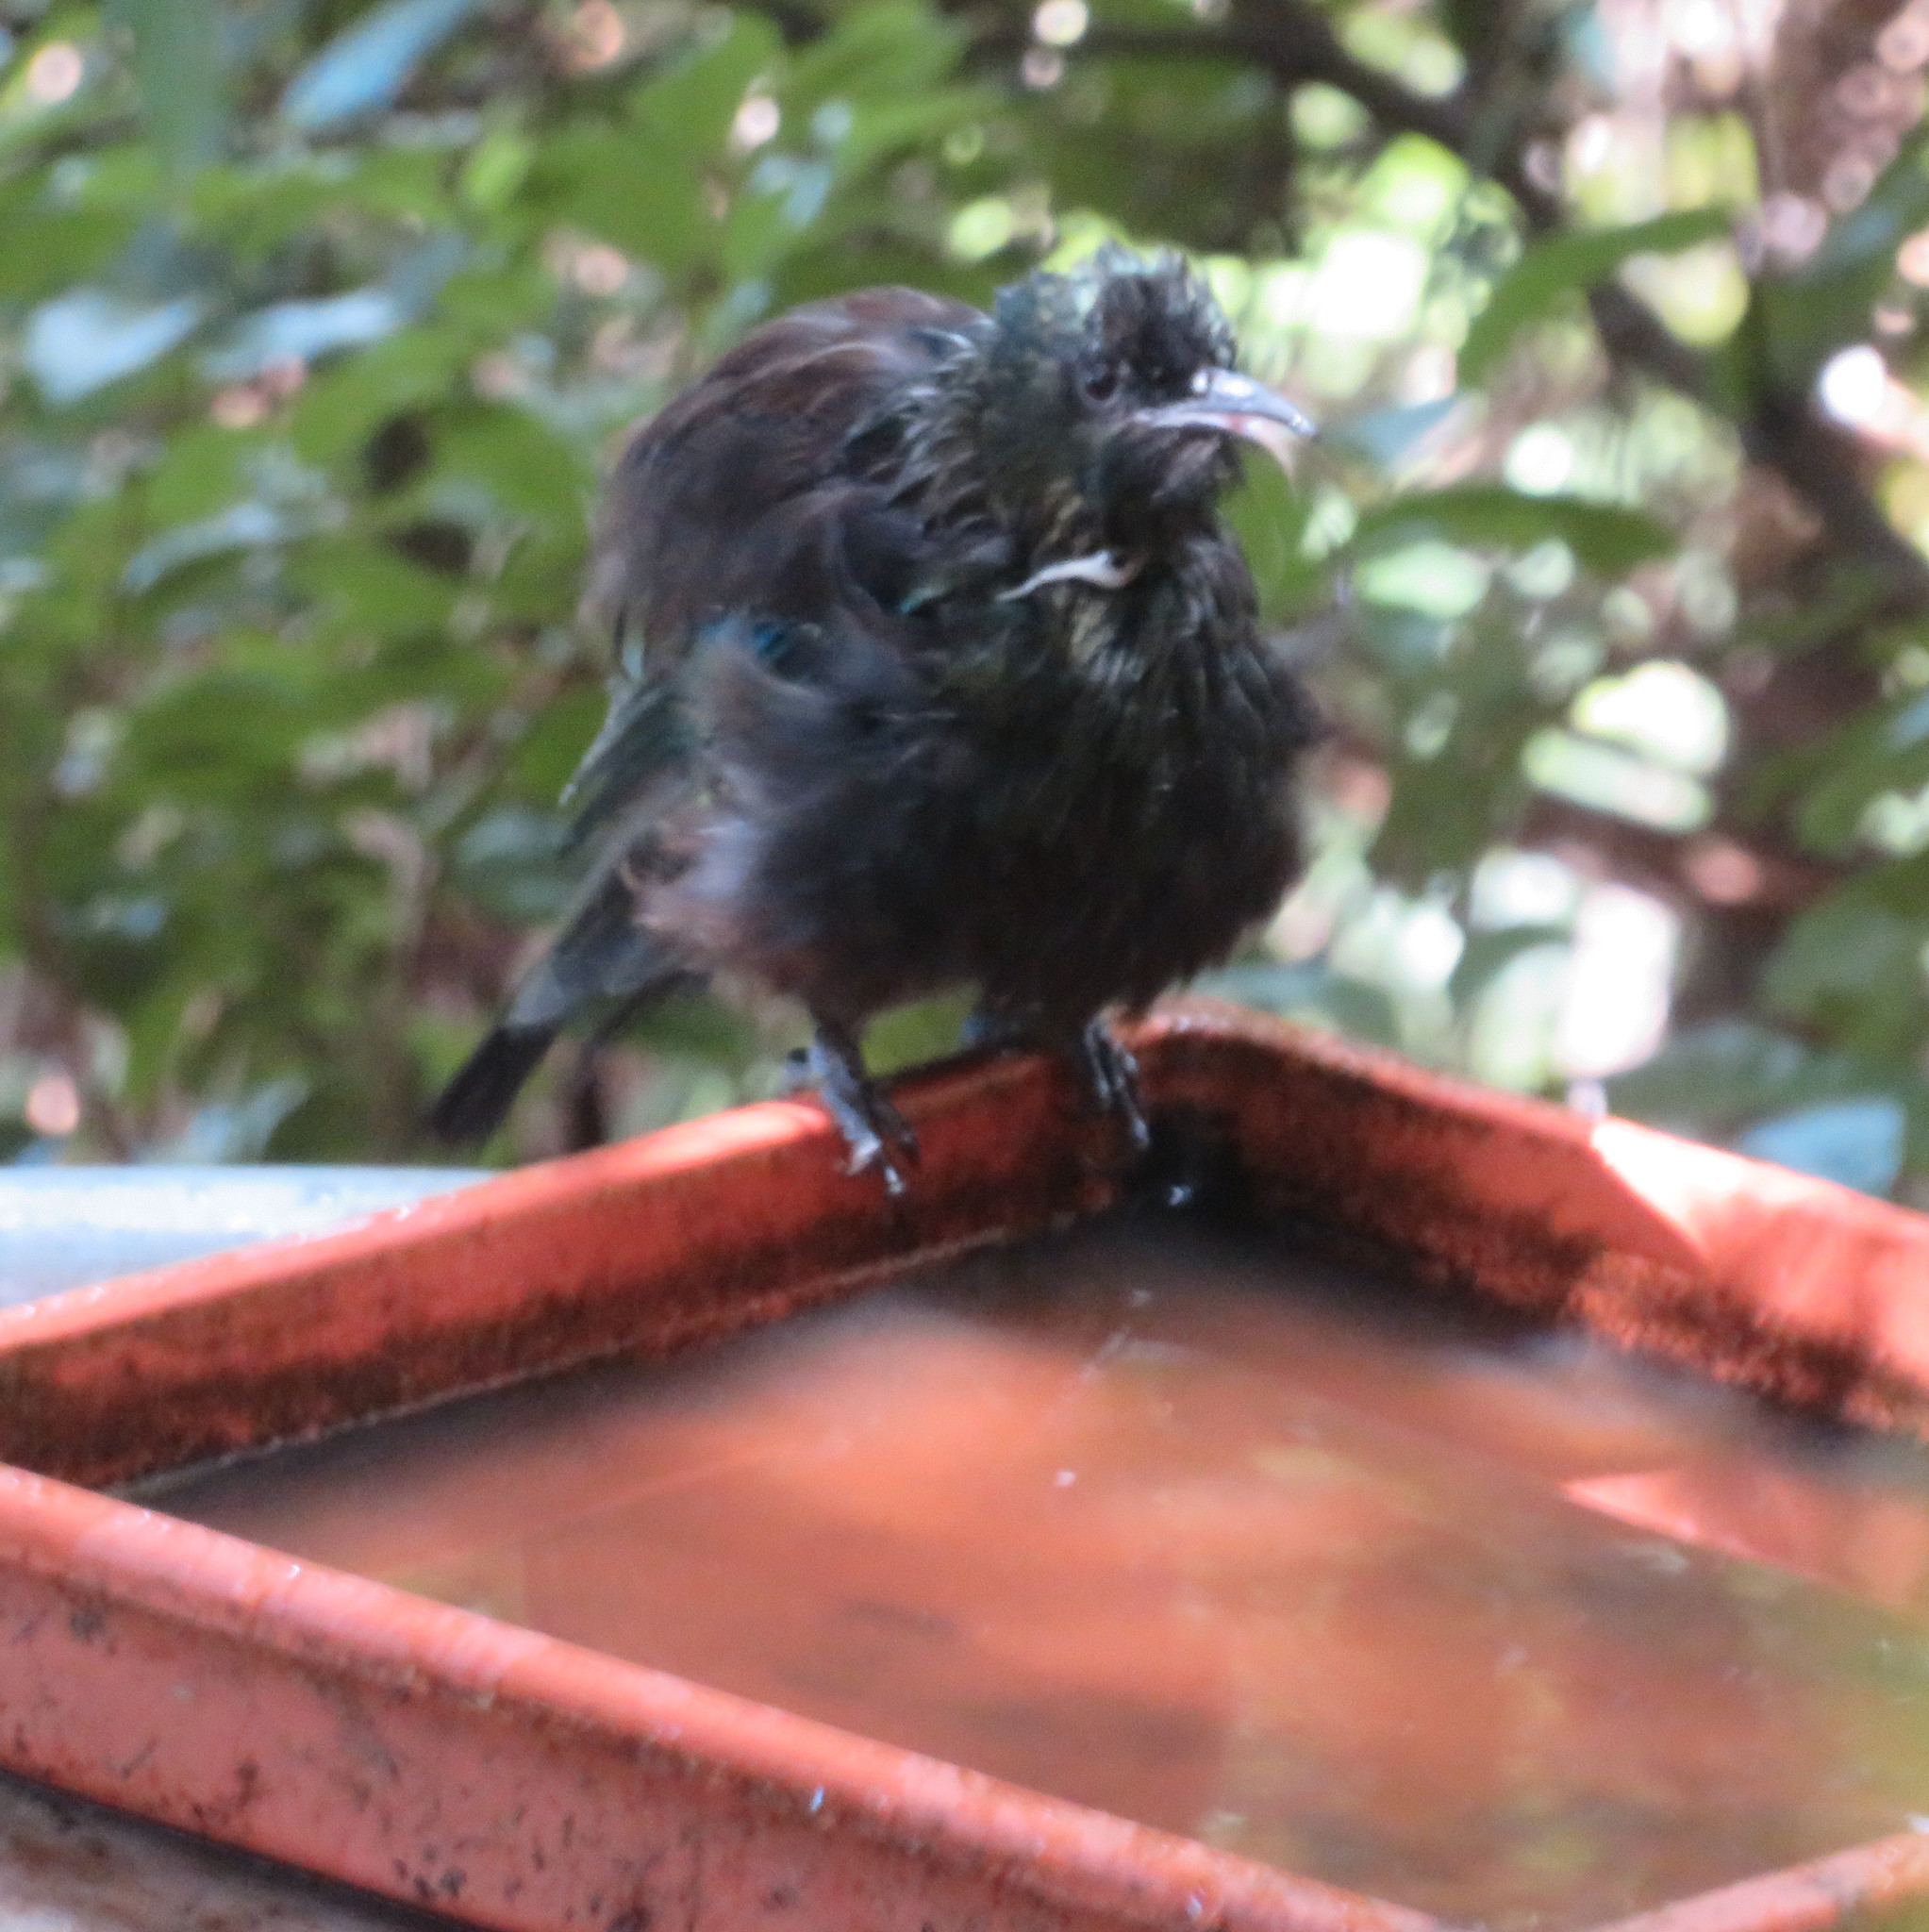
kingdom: Animalia
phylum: Chordata
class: Aves
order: Passeriformes
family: Meliphagidae
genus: Prosthemadera
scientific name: Prosthemadera novaeseelandiae
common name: Tui
